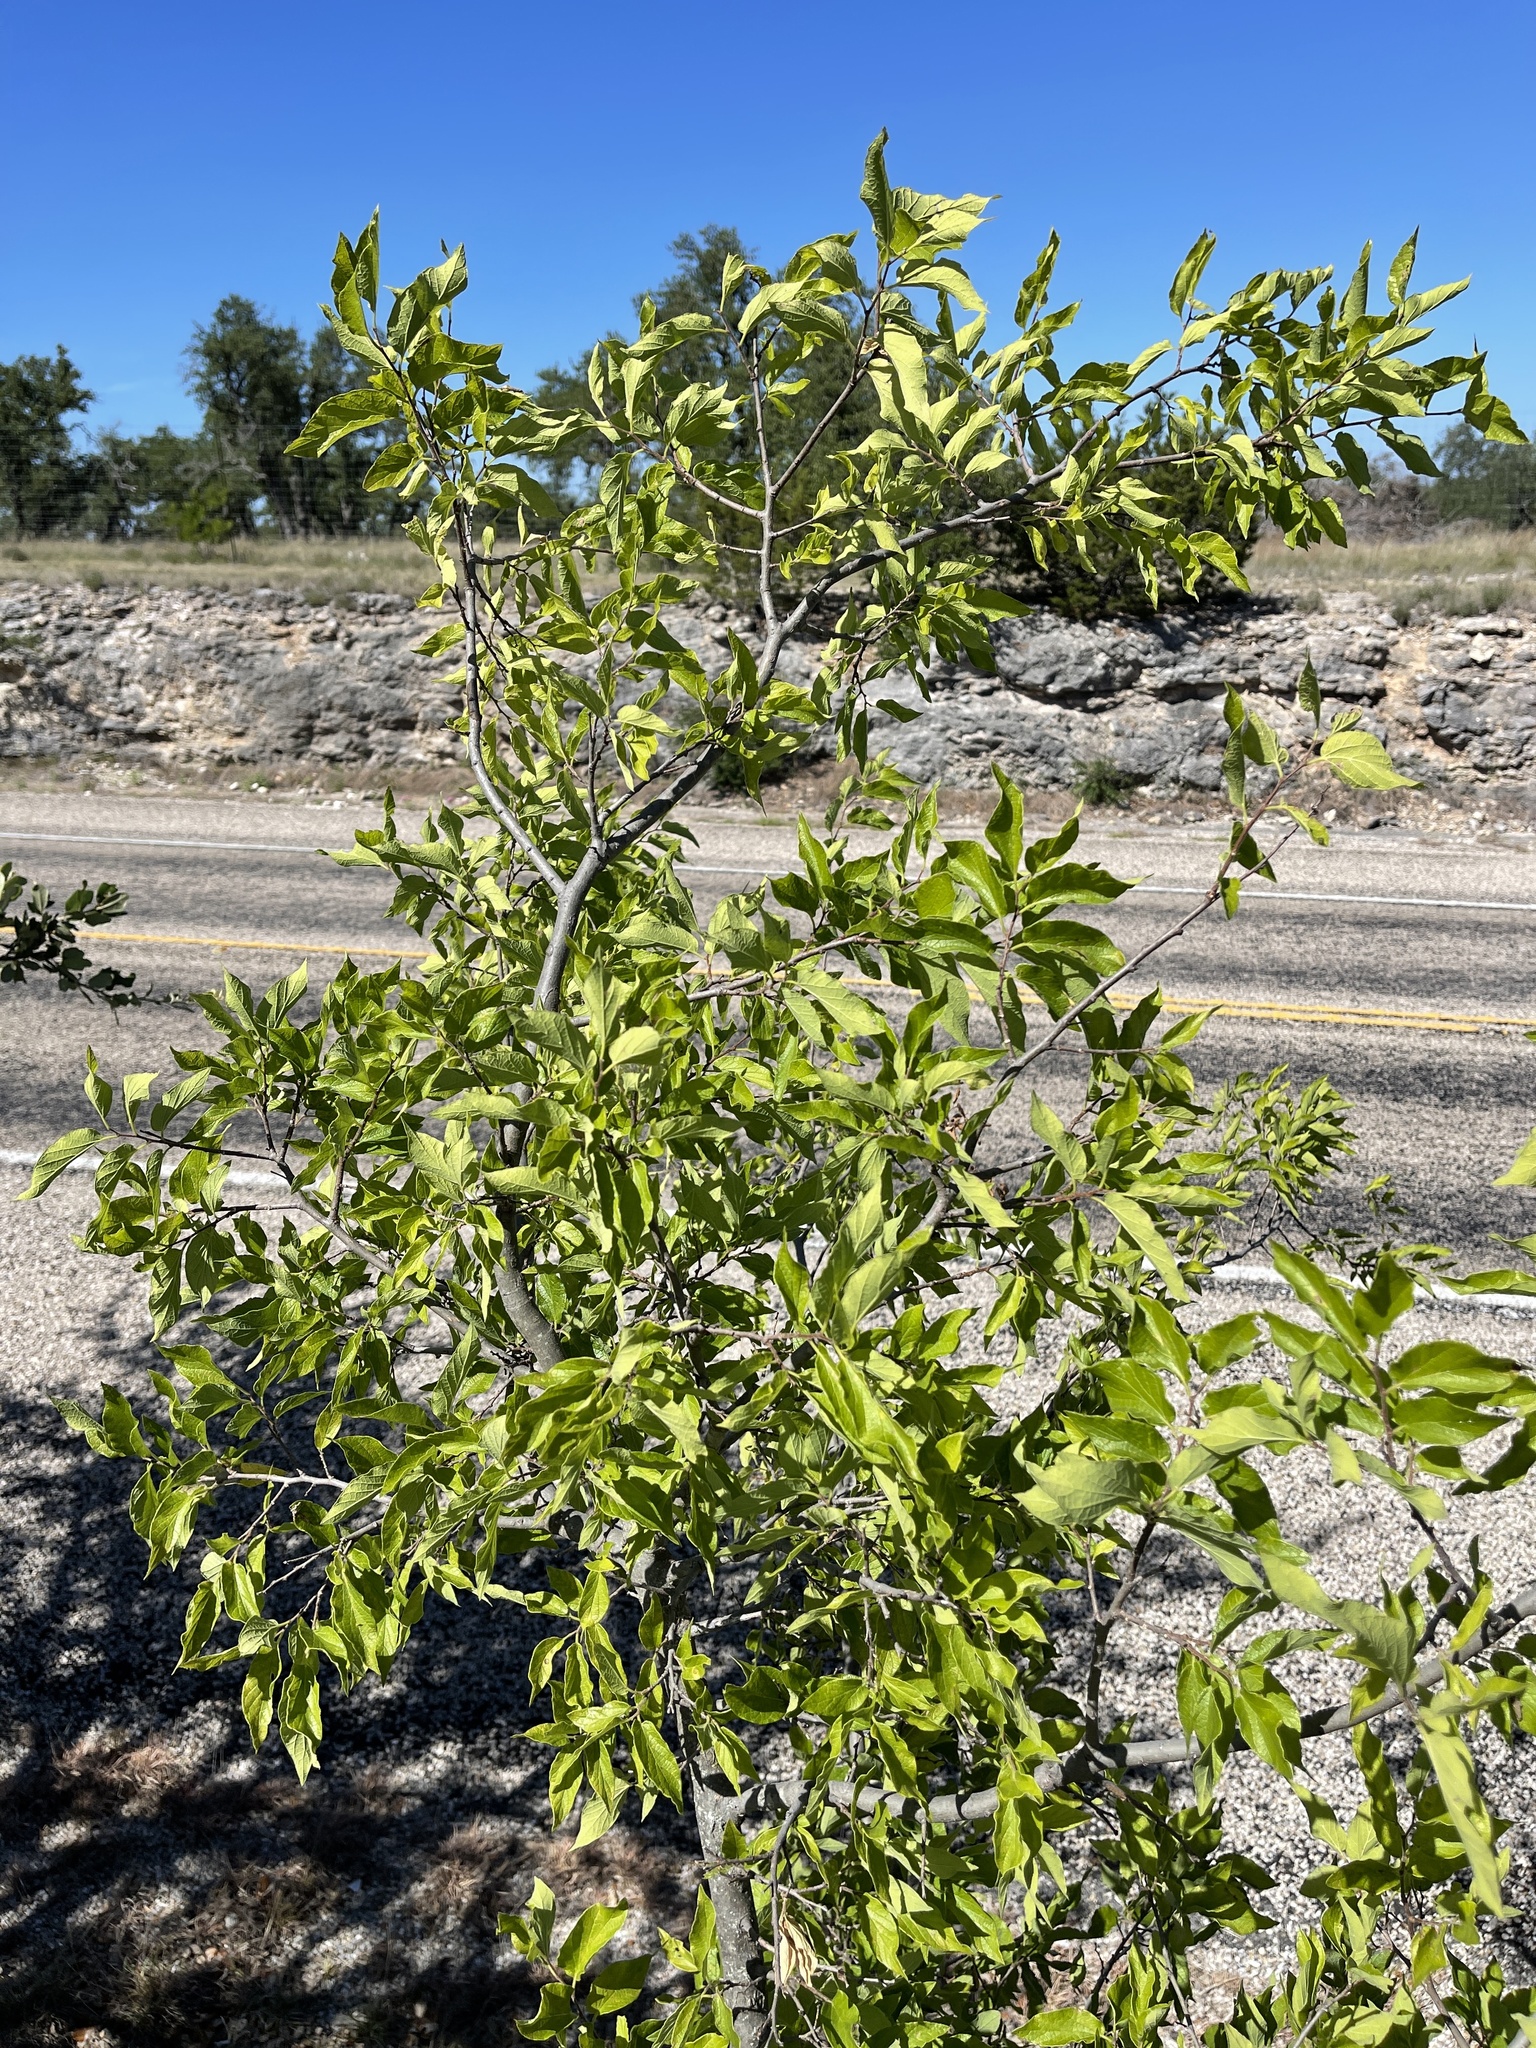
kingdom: Plantae
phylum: Tracheophyta
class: Magnoliopsida
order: Rosales
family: Cannabaceae
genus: Celtis
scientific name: Celtis reticulata
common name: Netleaf hackberry
